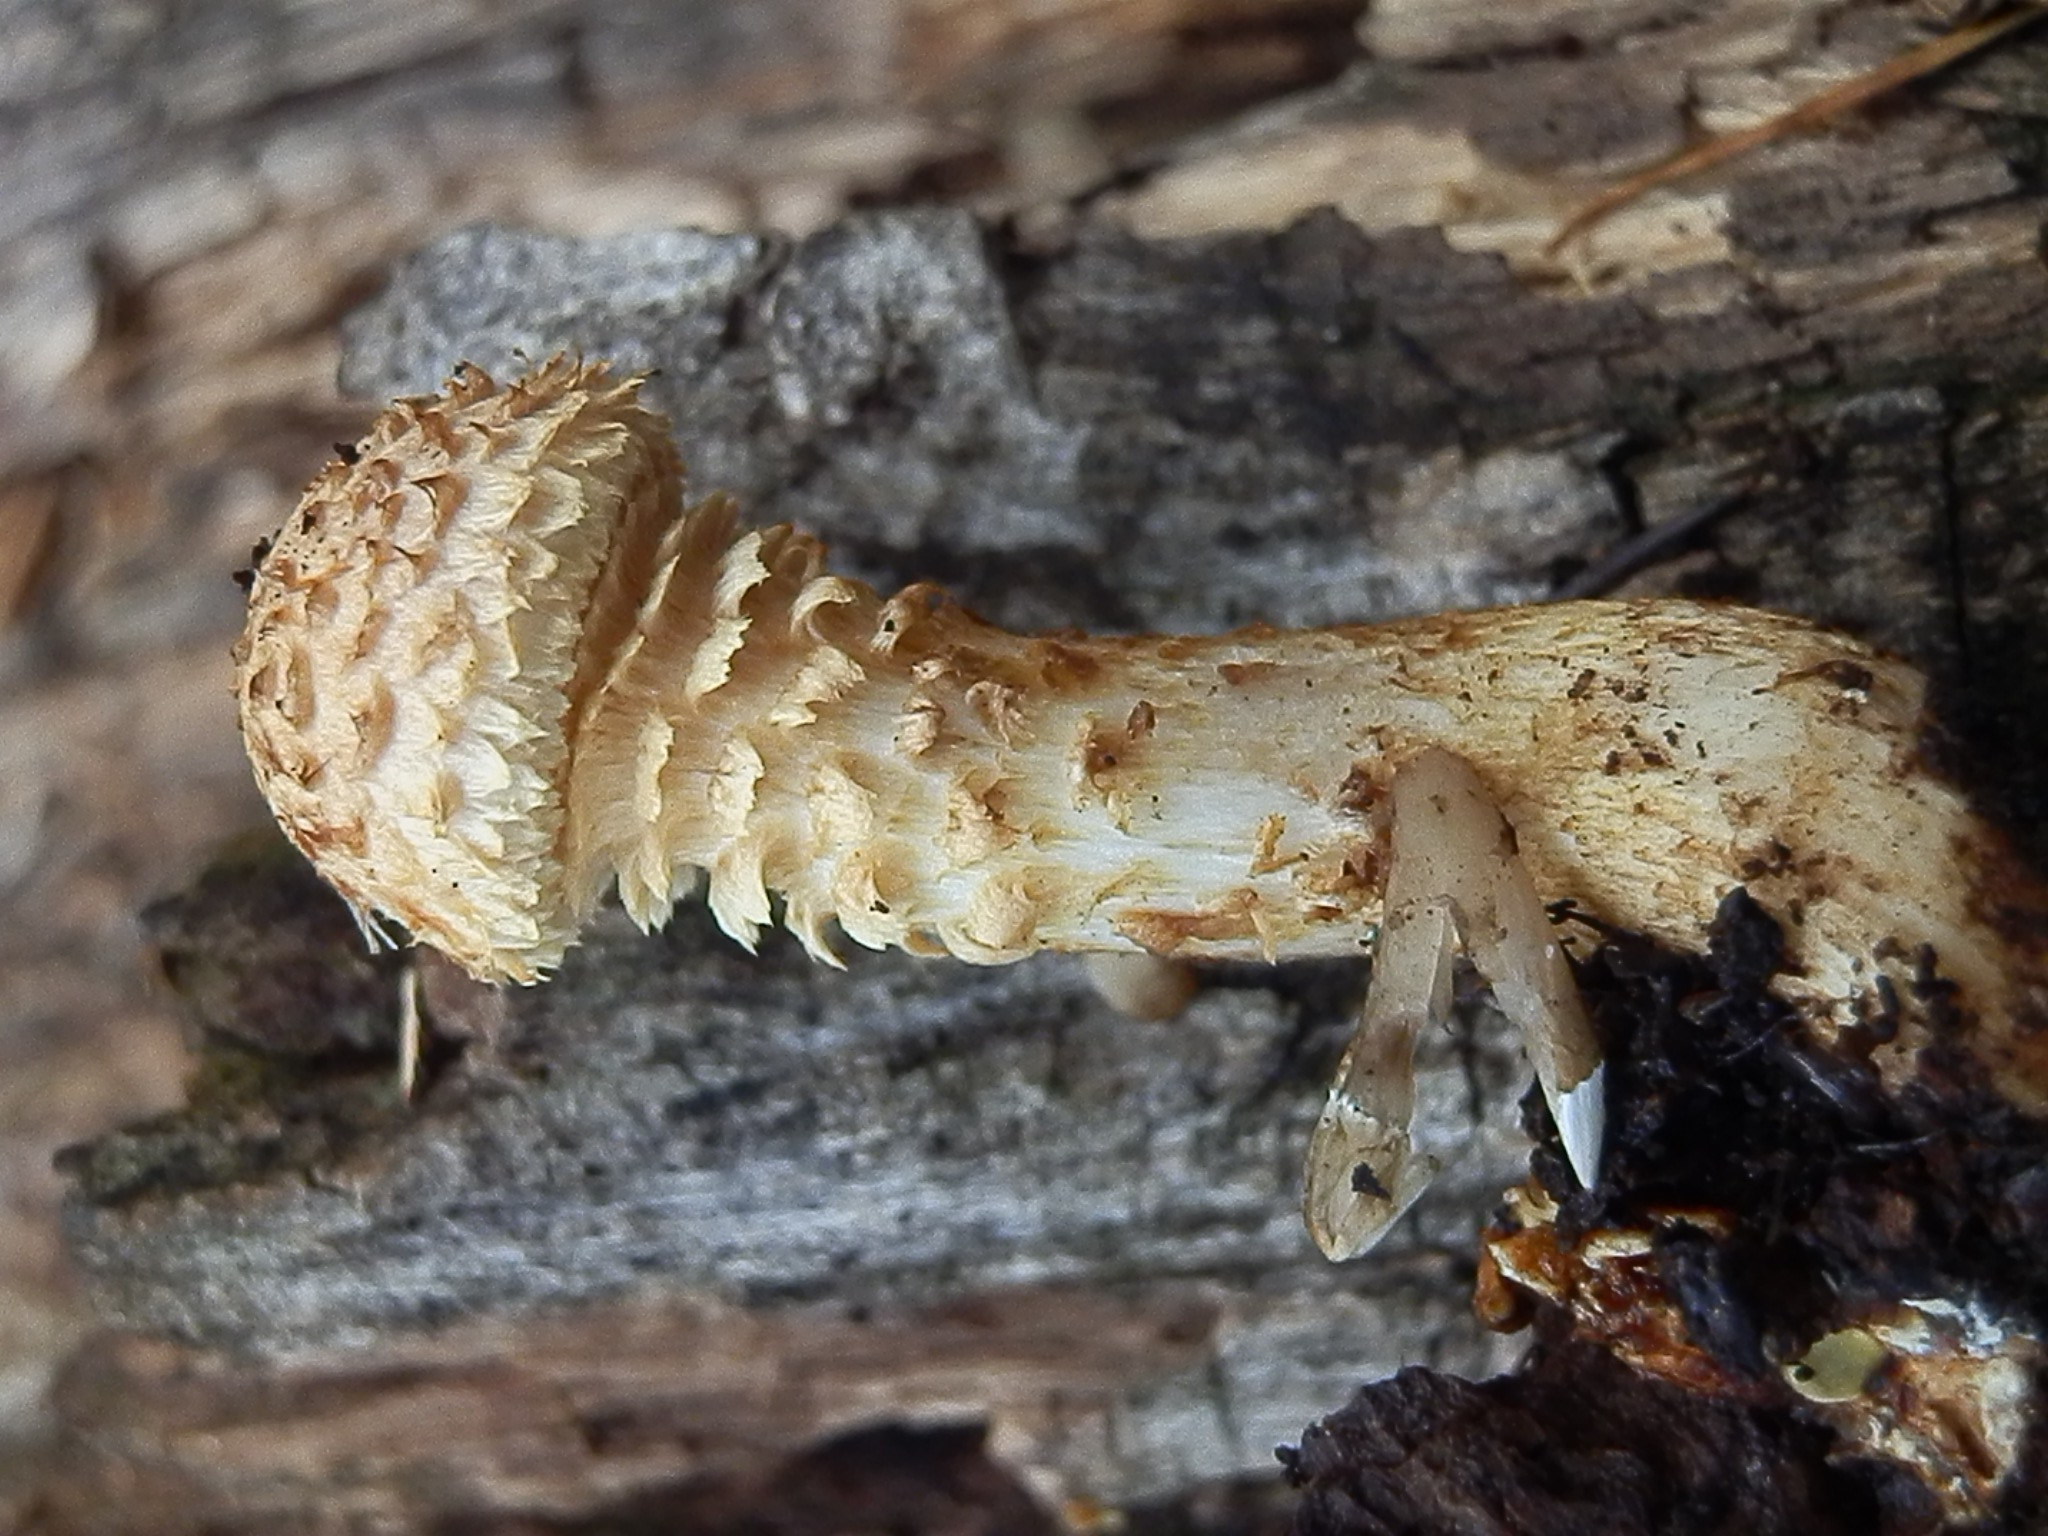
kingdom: Fungi
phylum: Basidiomycota
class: Agaricomycetes
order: Agaricales
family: Strophariaceae
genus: Pholiota
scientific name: Pholiota squarrosa
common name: Shaggy pholiota
